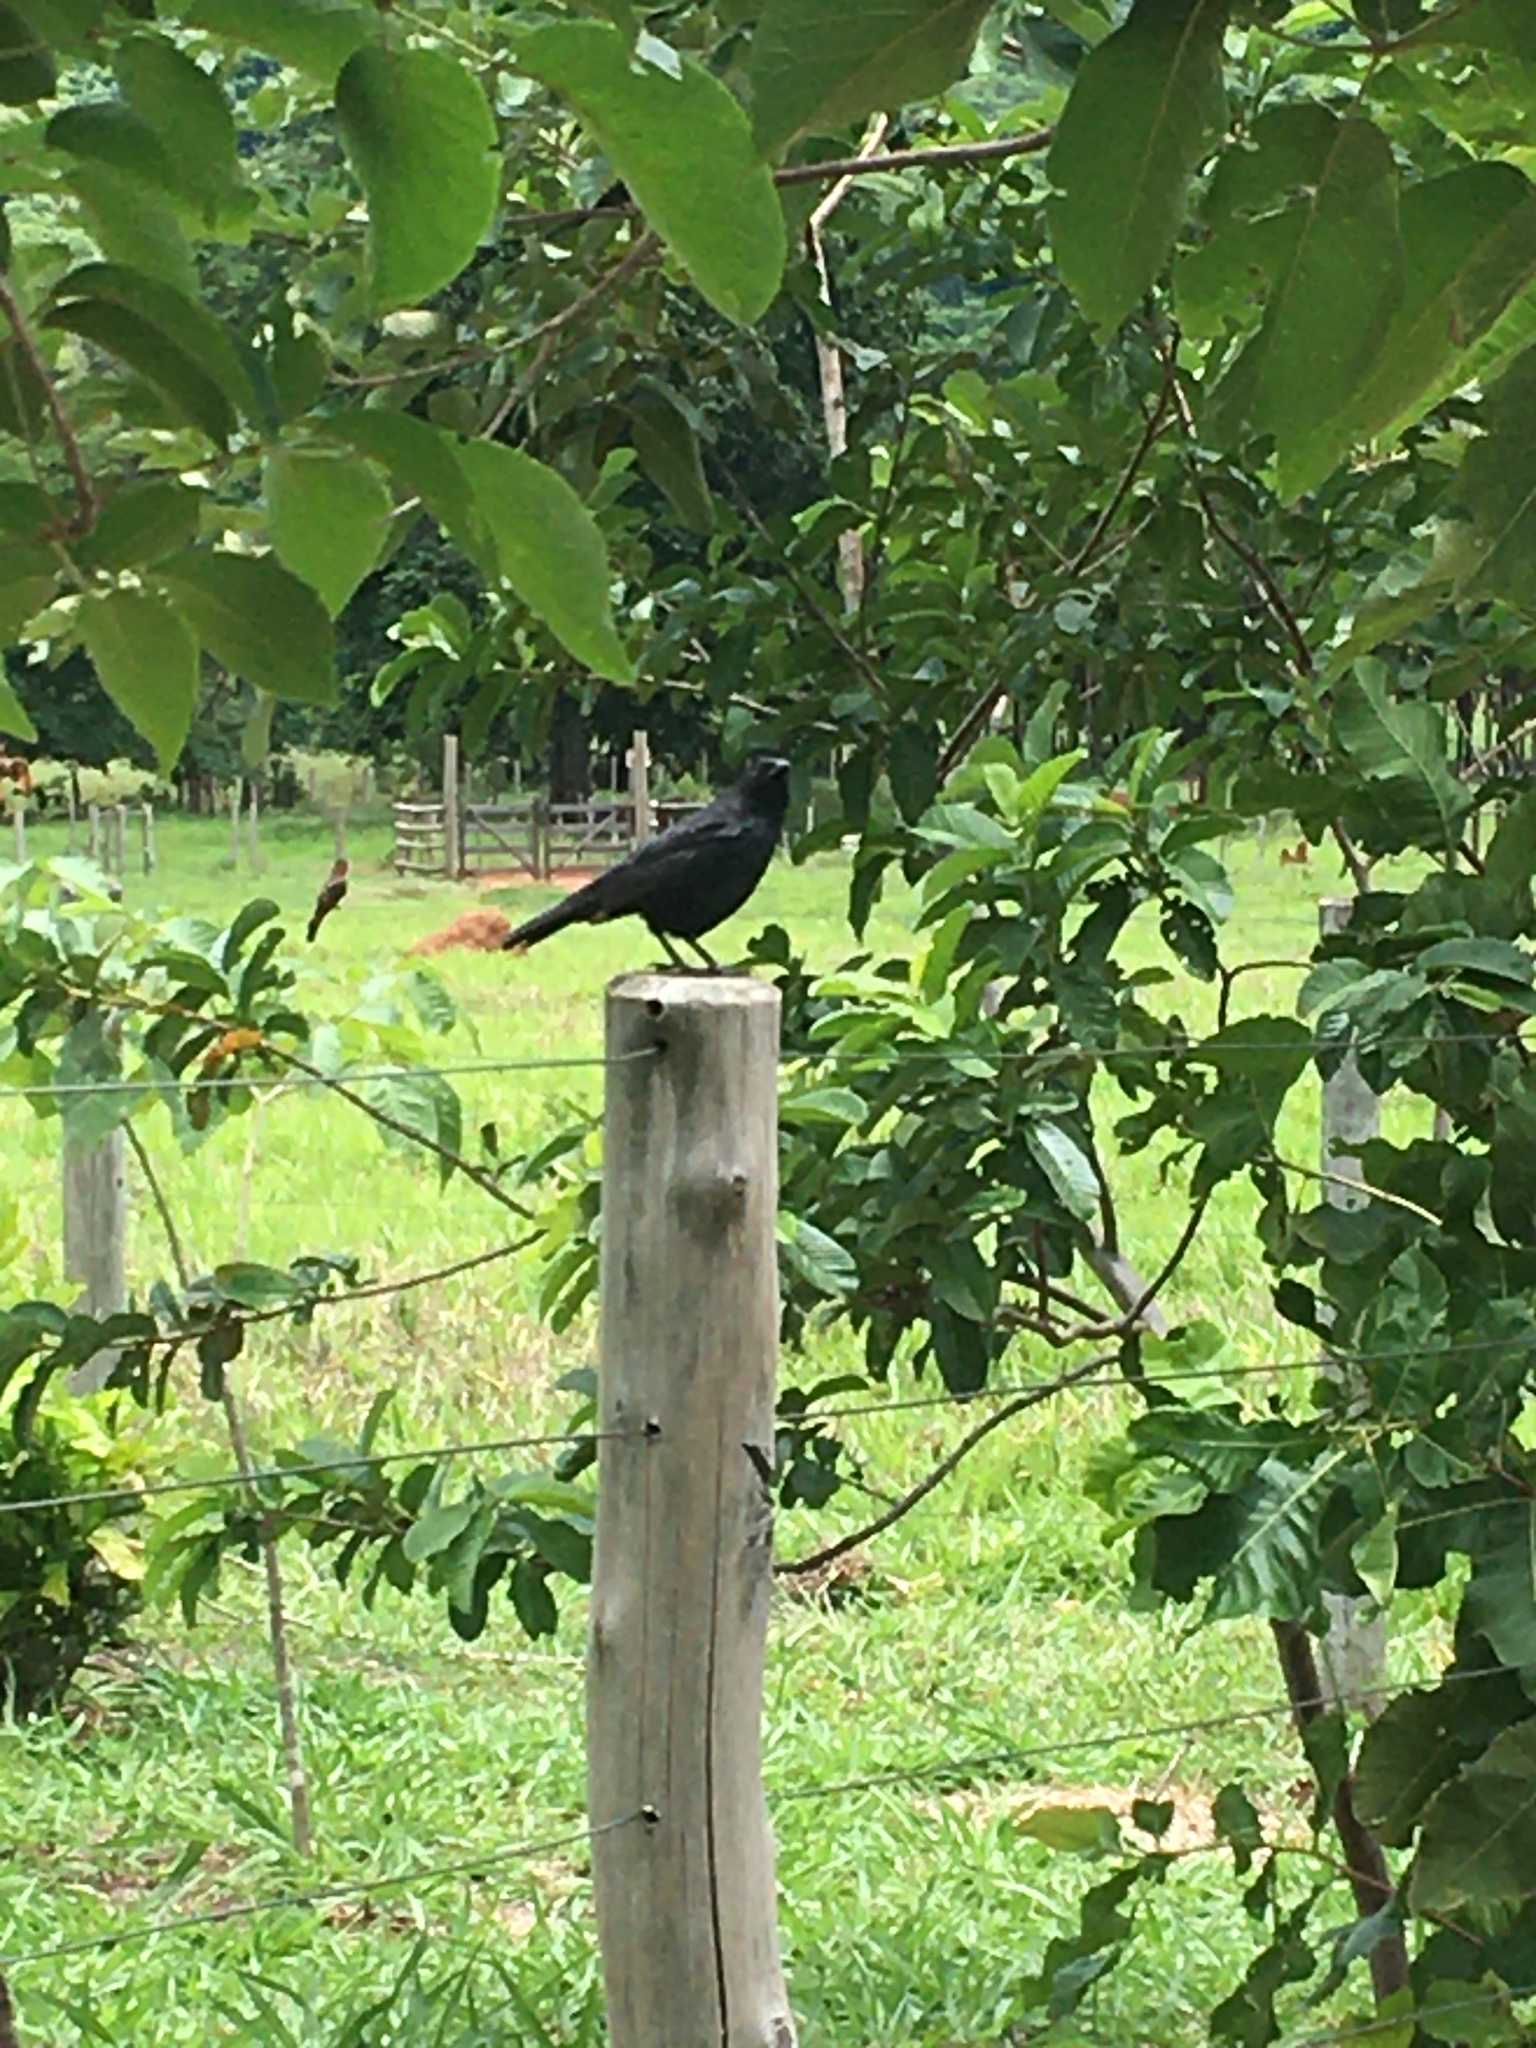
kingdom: Animalia
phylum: Chordata
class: Aves
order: Passeriformes
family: Icteridae
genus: Gnorimopsar
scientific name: Gnorimopsar chopi
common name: Chopi blackbird
